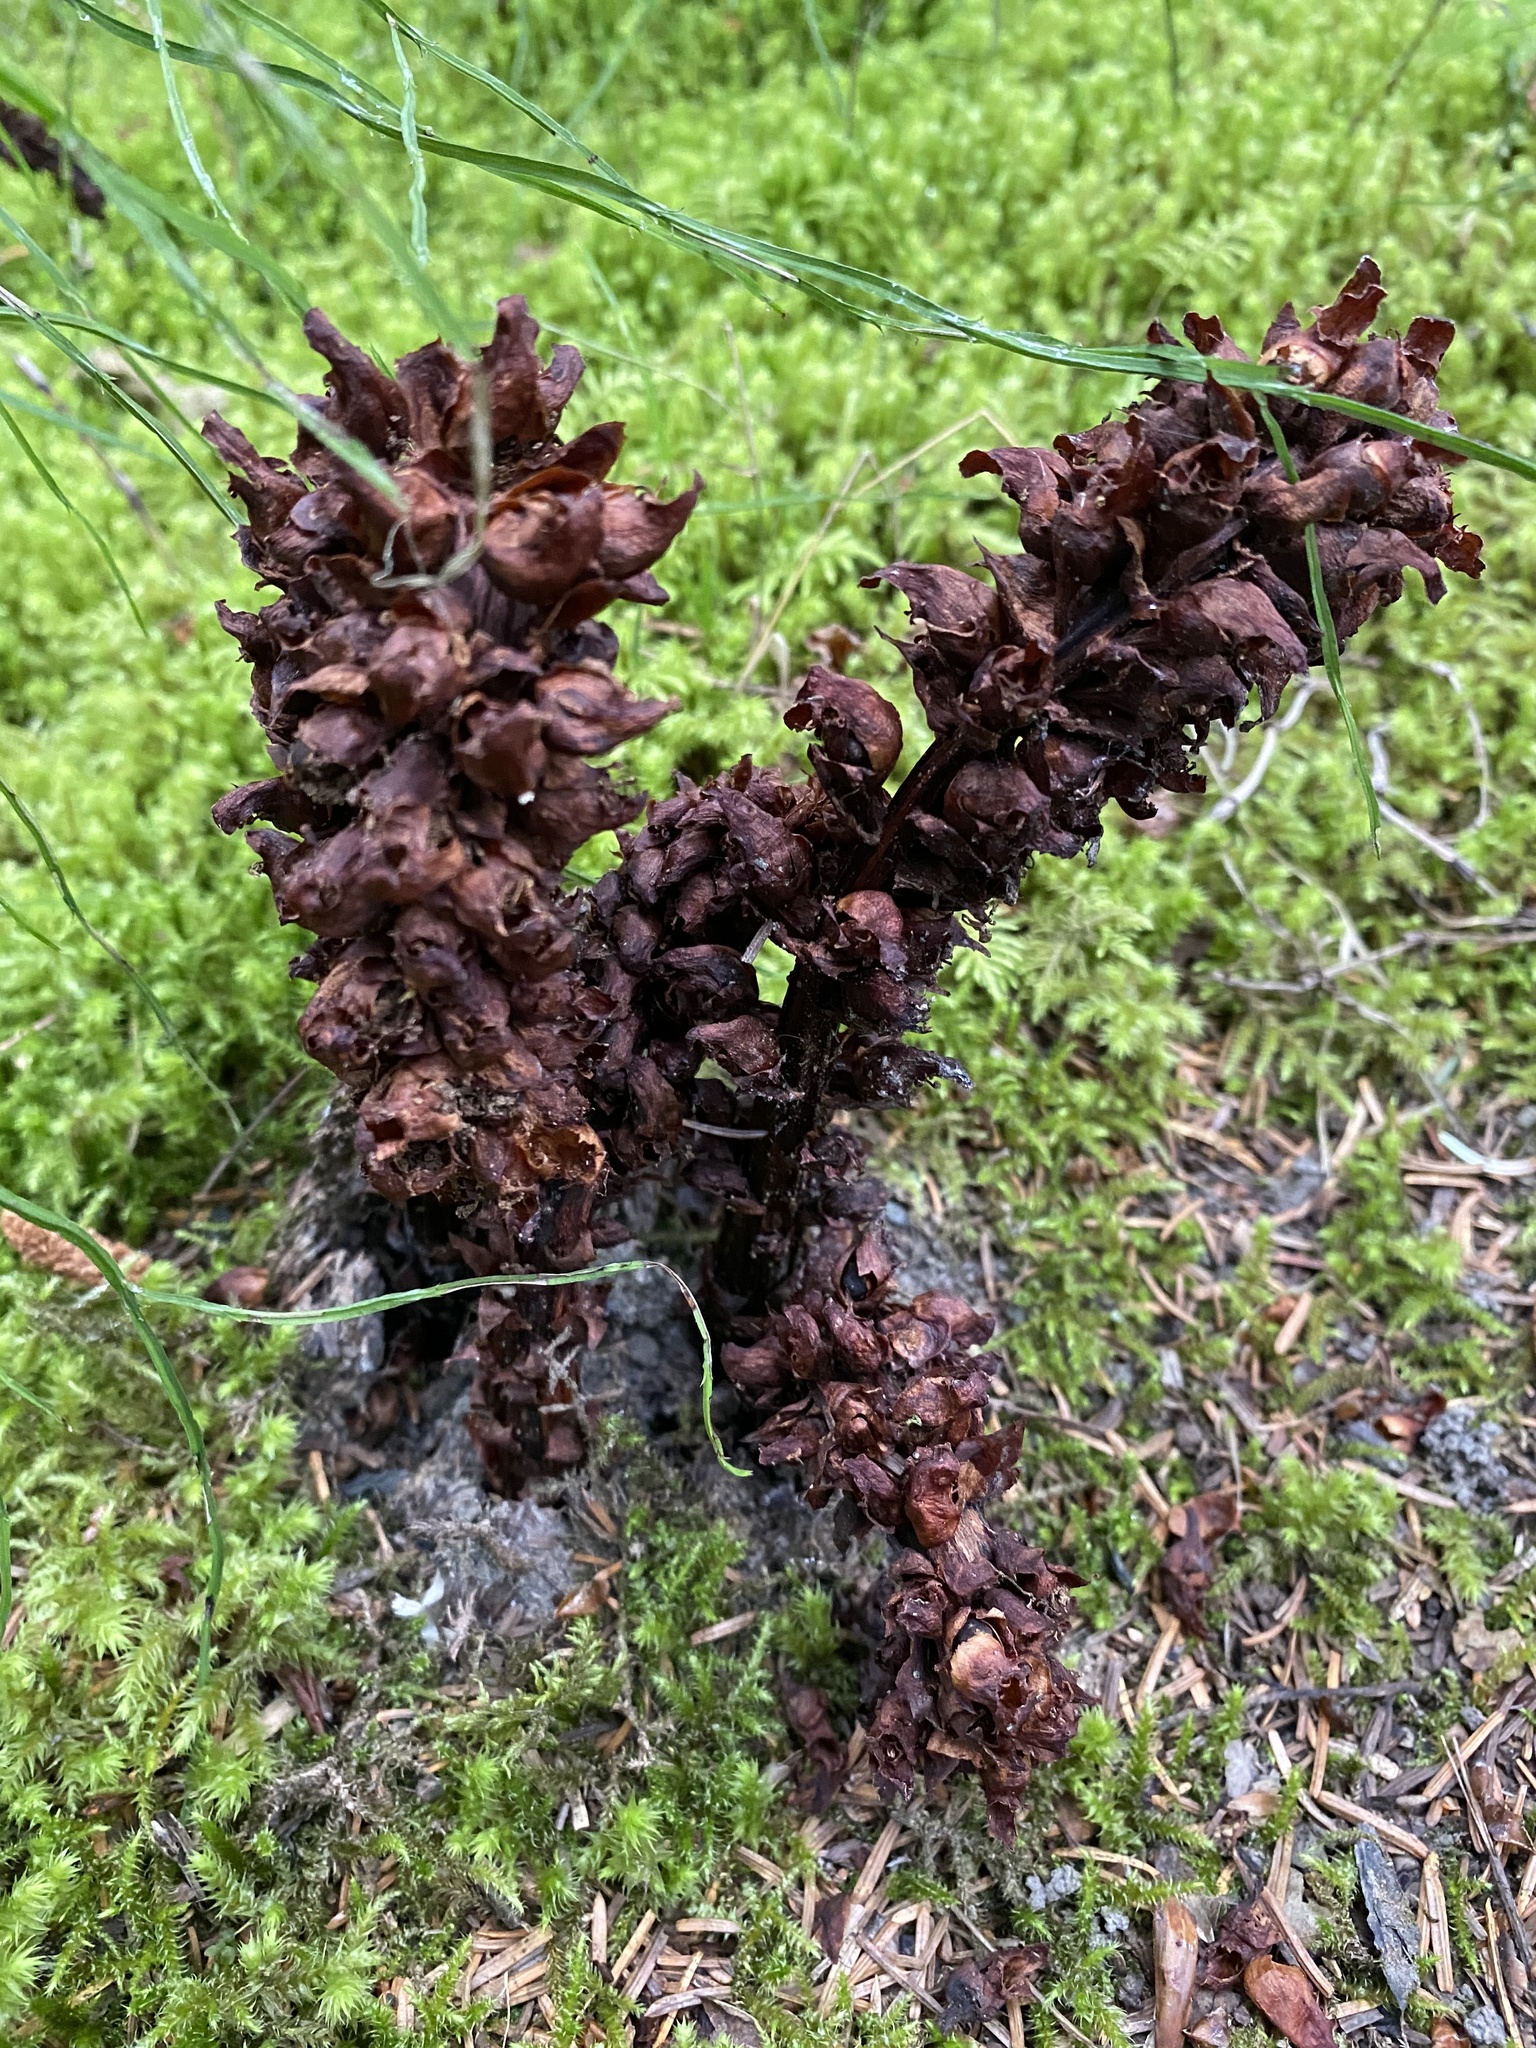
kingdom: Plantae
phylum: Tracheophyta
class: Magnoliopsida
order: Lamiales
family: Orobanchaceae
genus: Boschniakia
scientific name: Boschniakia rossica
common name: Poque
